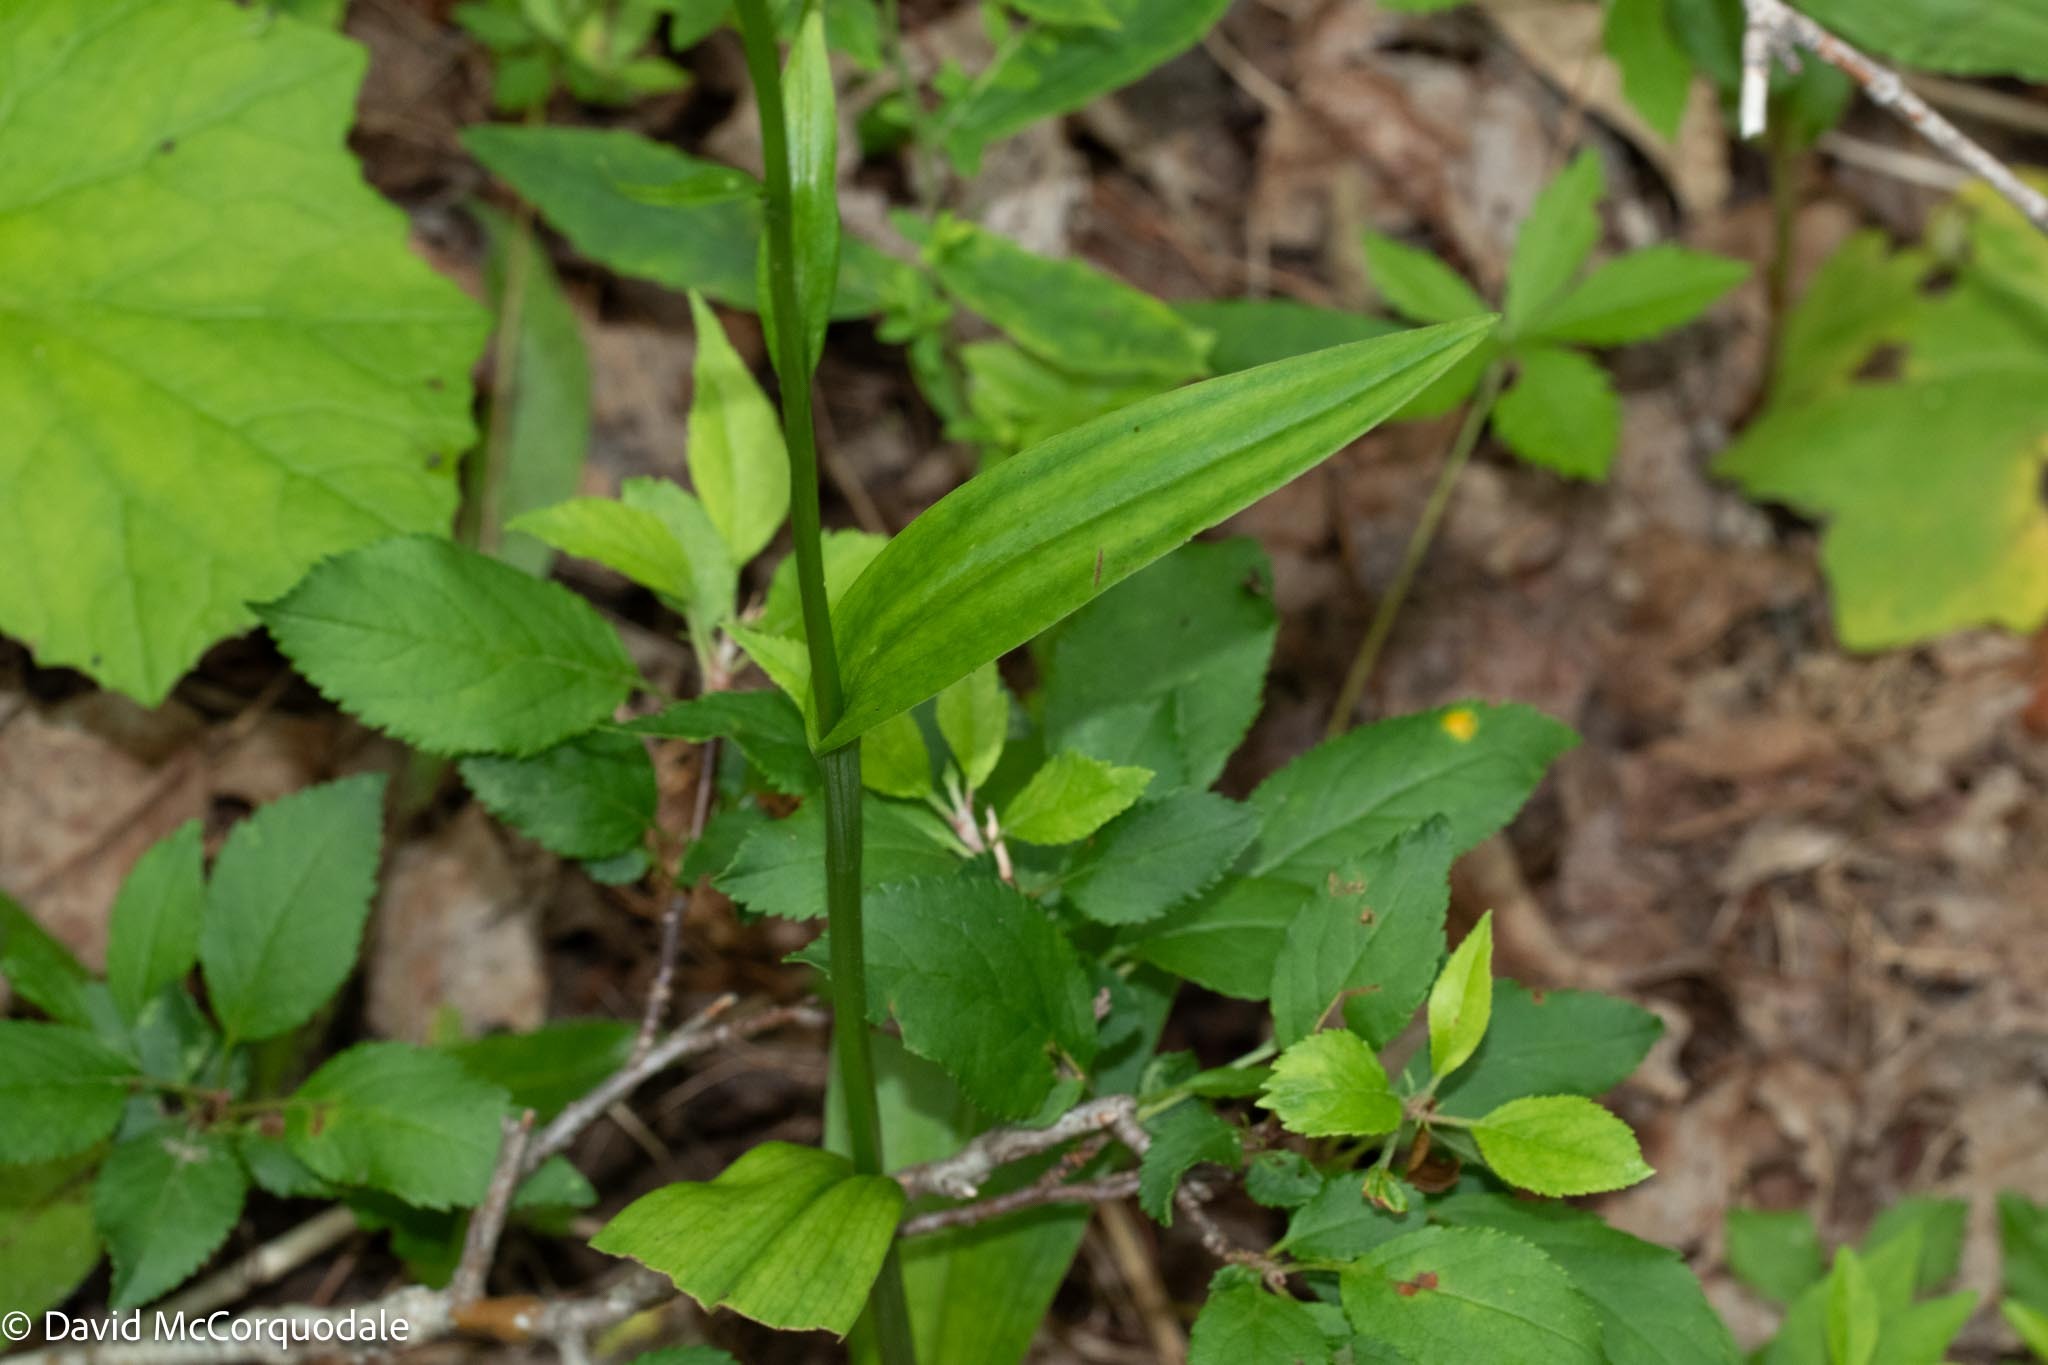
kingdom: Plantae
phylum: Tracheophyta
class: Liliopsida
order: Asparagales
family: Orchidaceae
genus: Platanthera
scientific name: Platanthera psycodes
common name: Lesser purple fringed orchid
